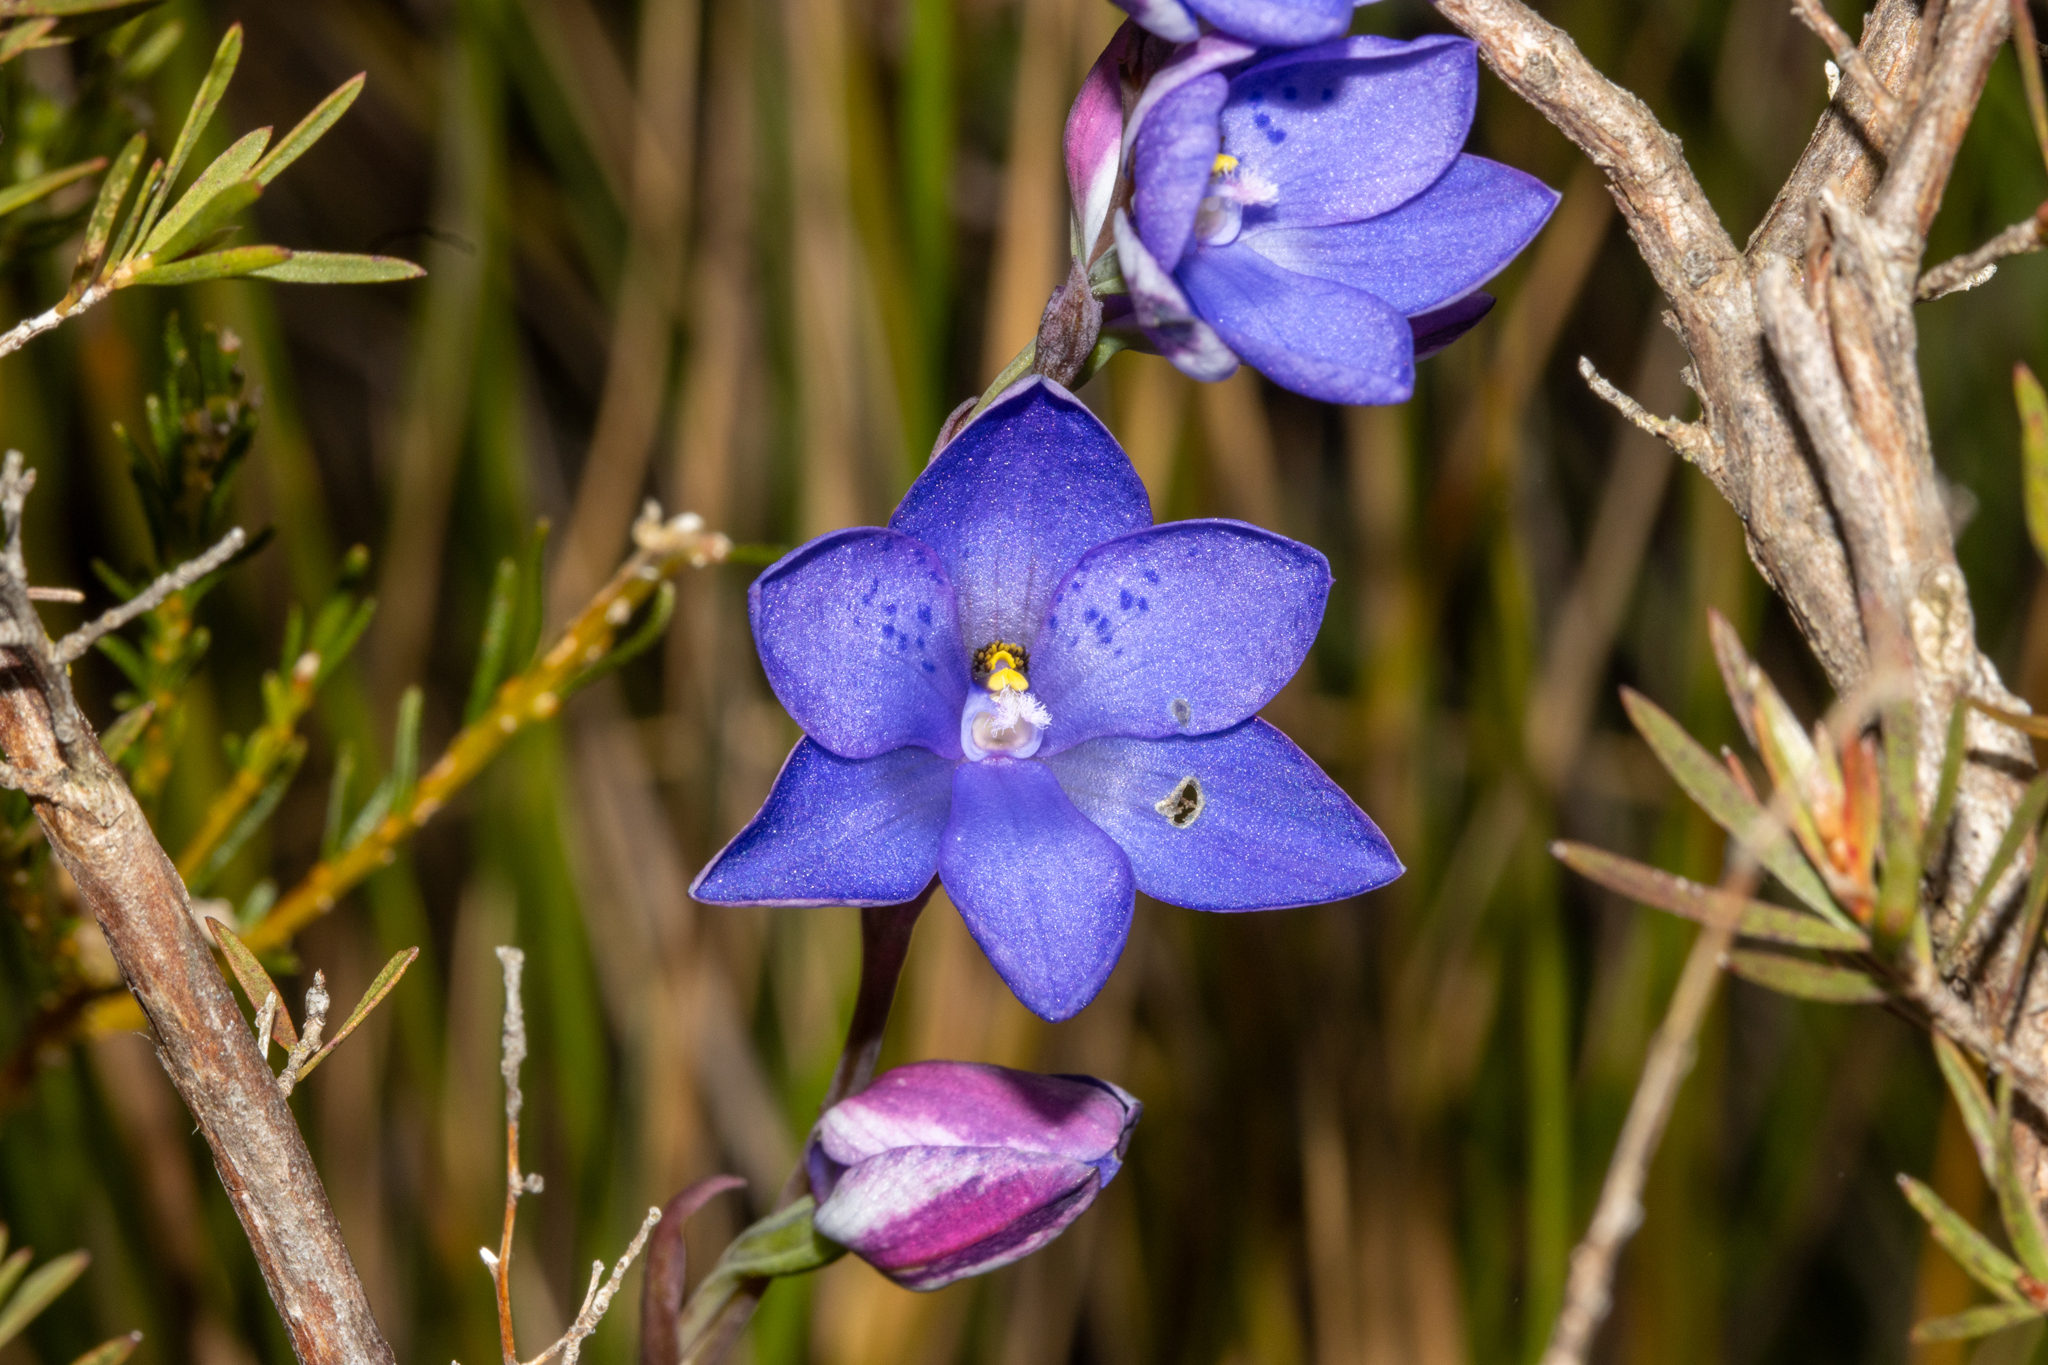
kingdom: Plantae
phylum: Tracheophyta
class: Liliopsida
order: Asparagales
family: Orchidaceae
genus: Thelymitra
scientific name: Thelymitra ixioides
